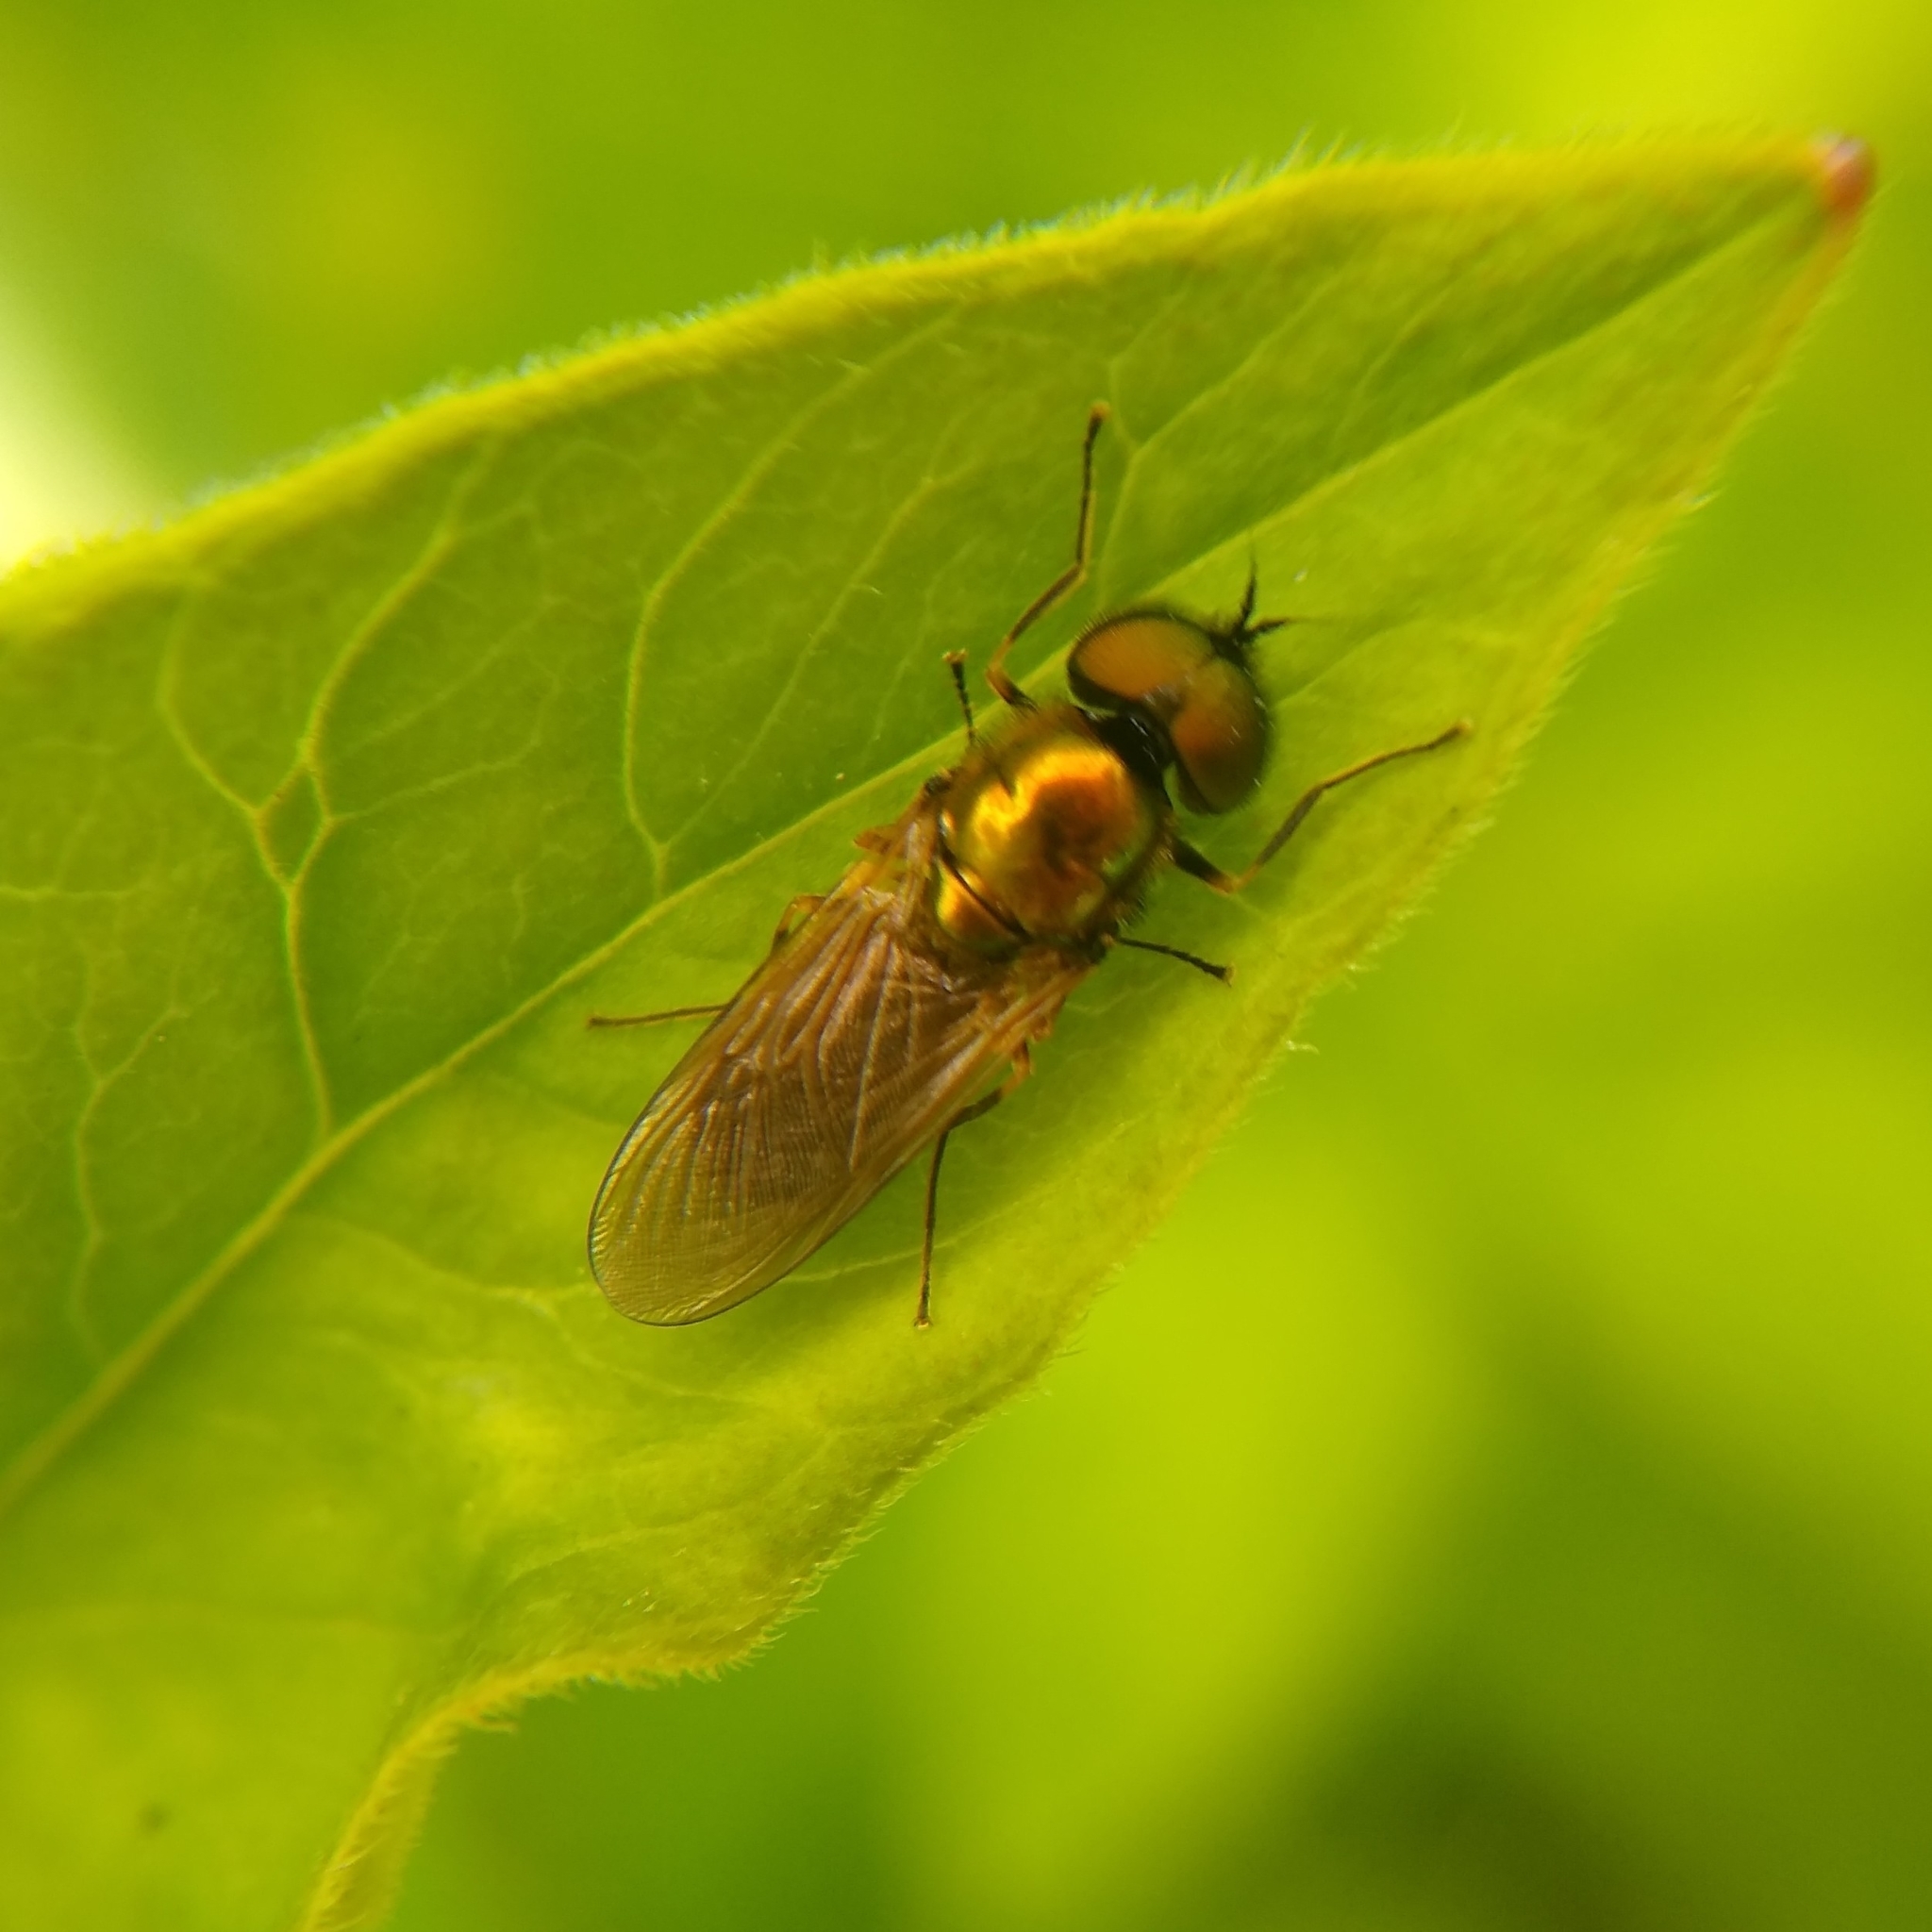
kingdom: Animalia
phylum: Arthropoda
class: Insecta
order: Diptera
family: Stratiomyidae
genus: Chloromyia
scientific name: Chloromyia formosa
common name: Soldier fly
